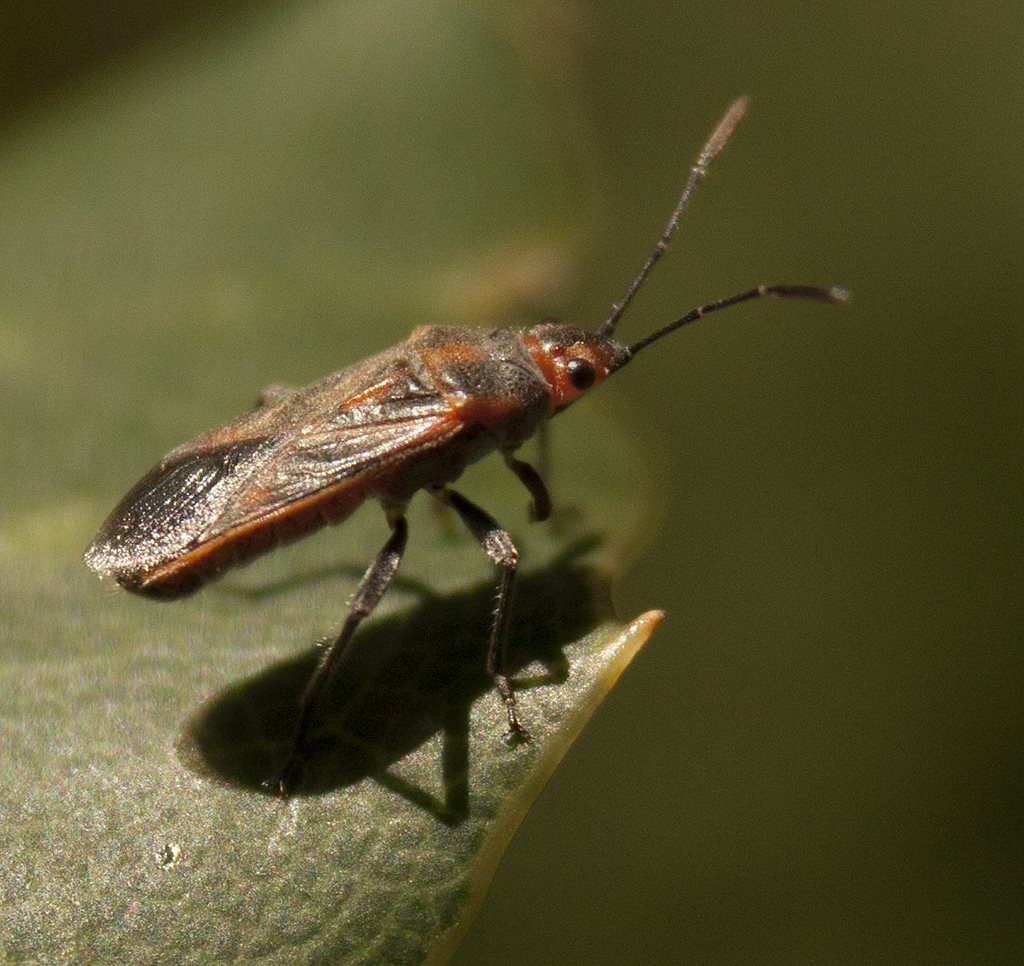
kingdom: Animalia
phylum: Arthropoda
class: Insecta
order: Hemiptera
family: Lygaeidae
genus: Arocatus
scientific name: Arocatus sericans
